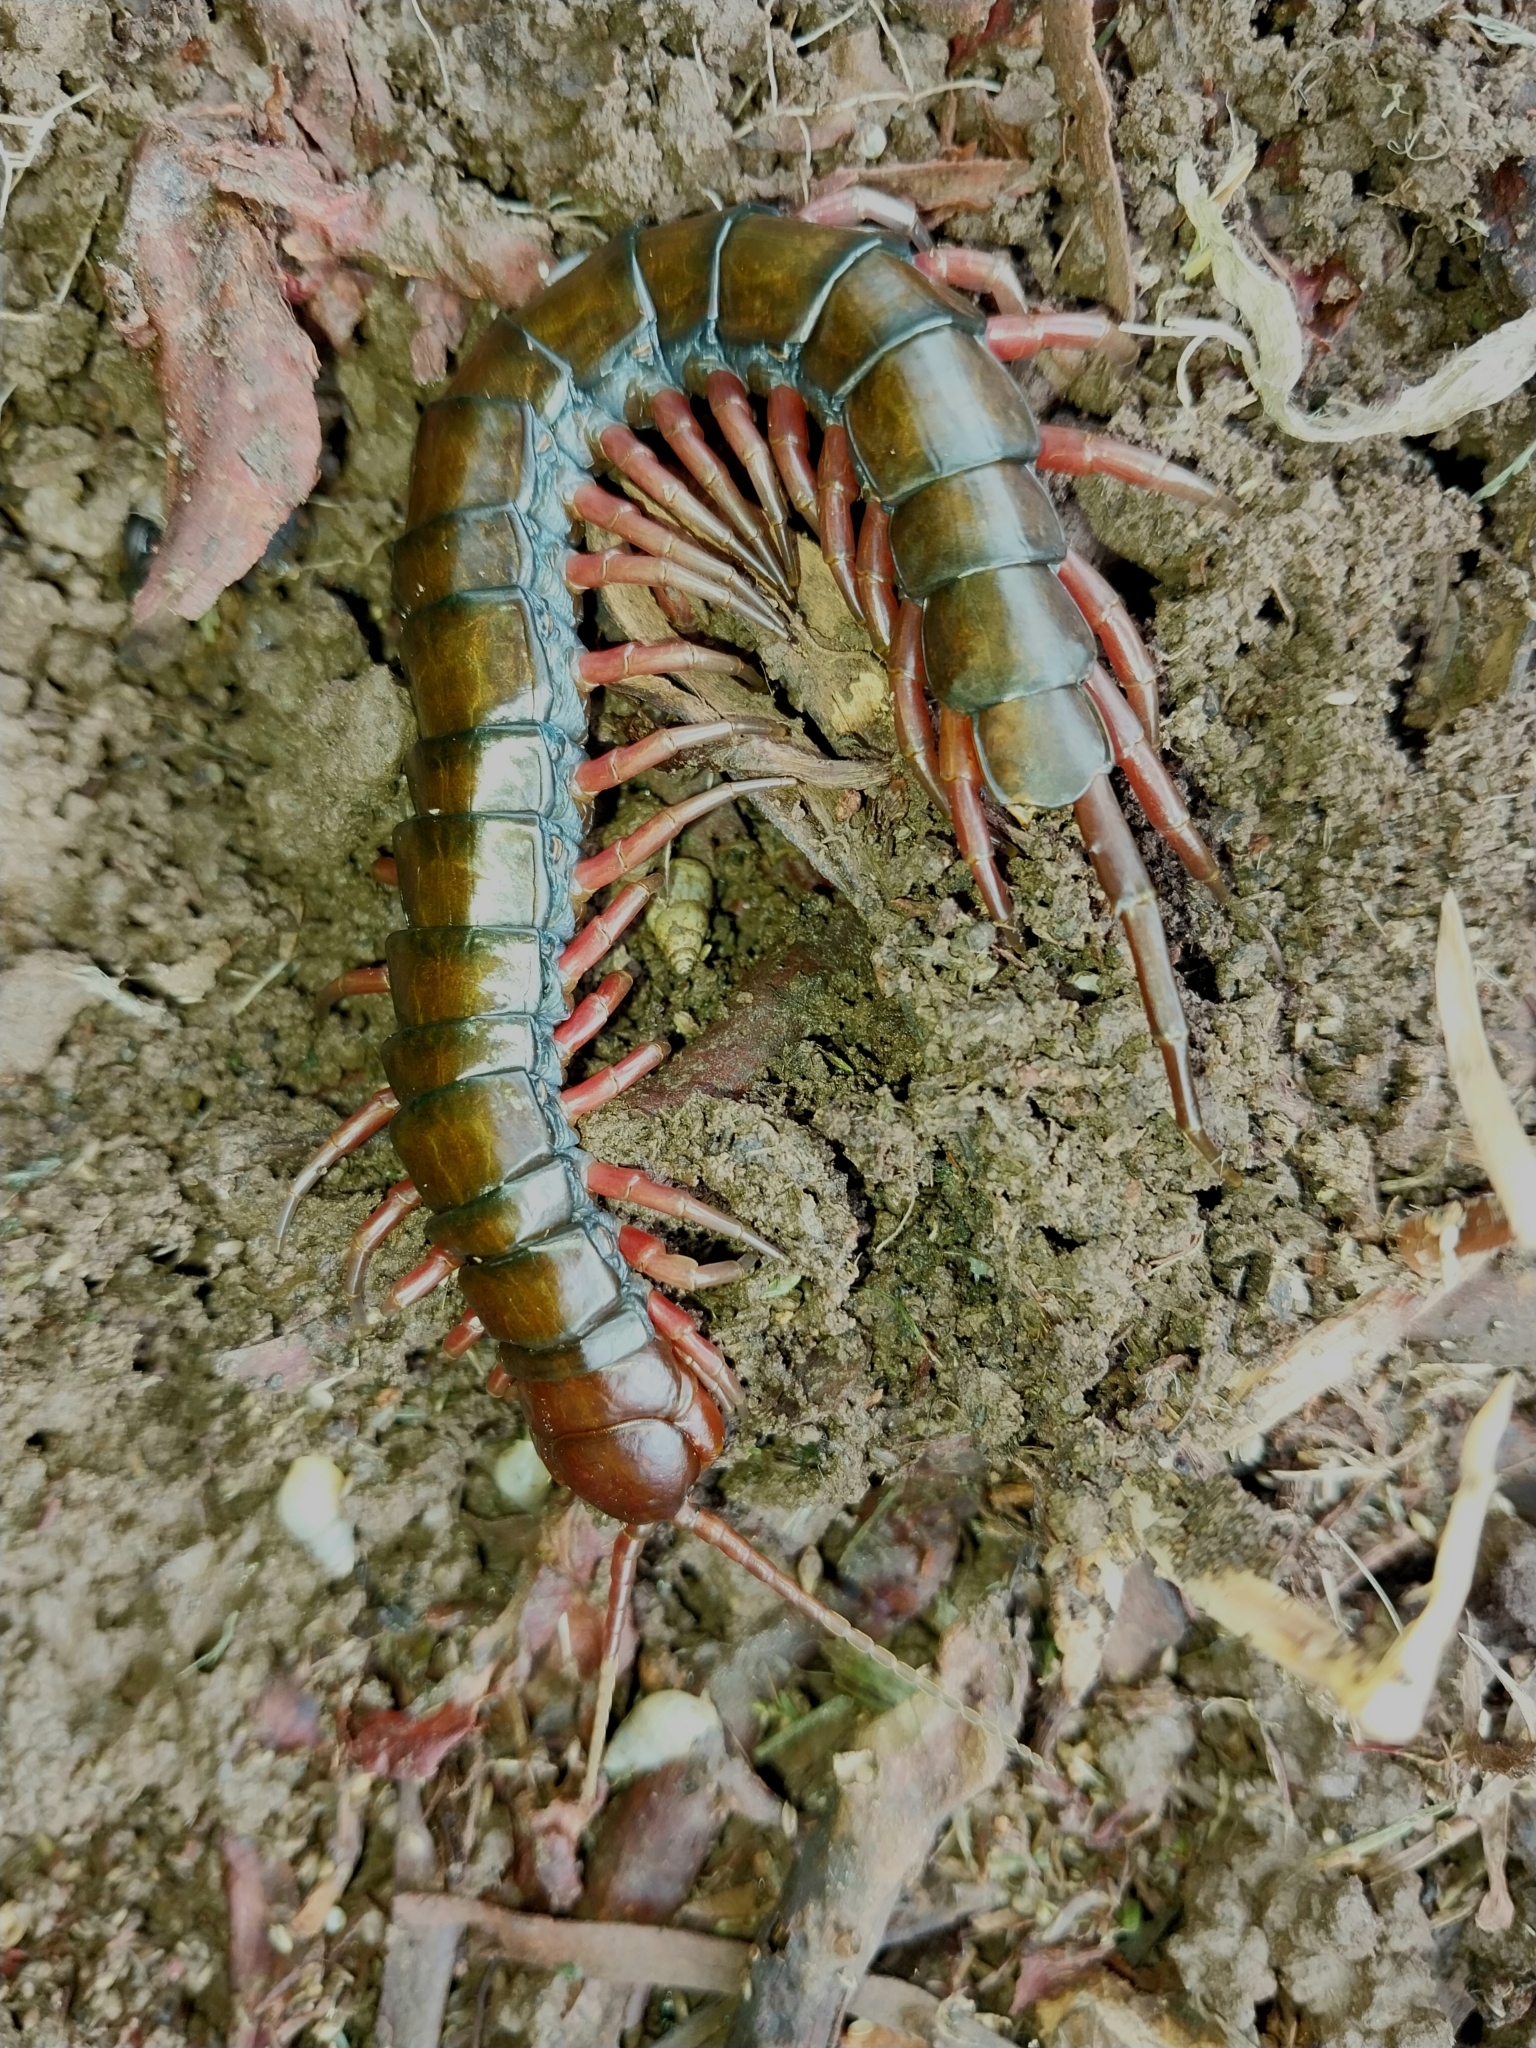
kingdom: Animalia
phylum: Arthropoda
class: Chilopoda
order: Scolopendromorpha
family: Scolopendridae
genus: Scolopendra
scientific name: Scolopendra subspinipes
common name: Centipede
